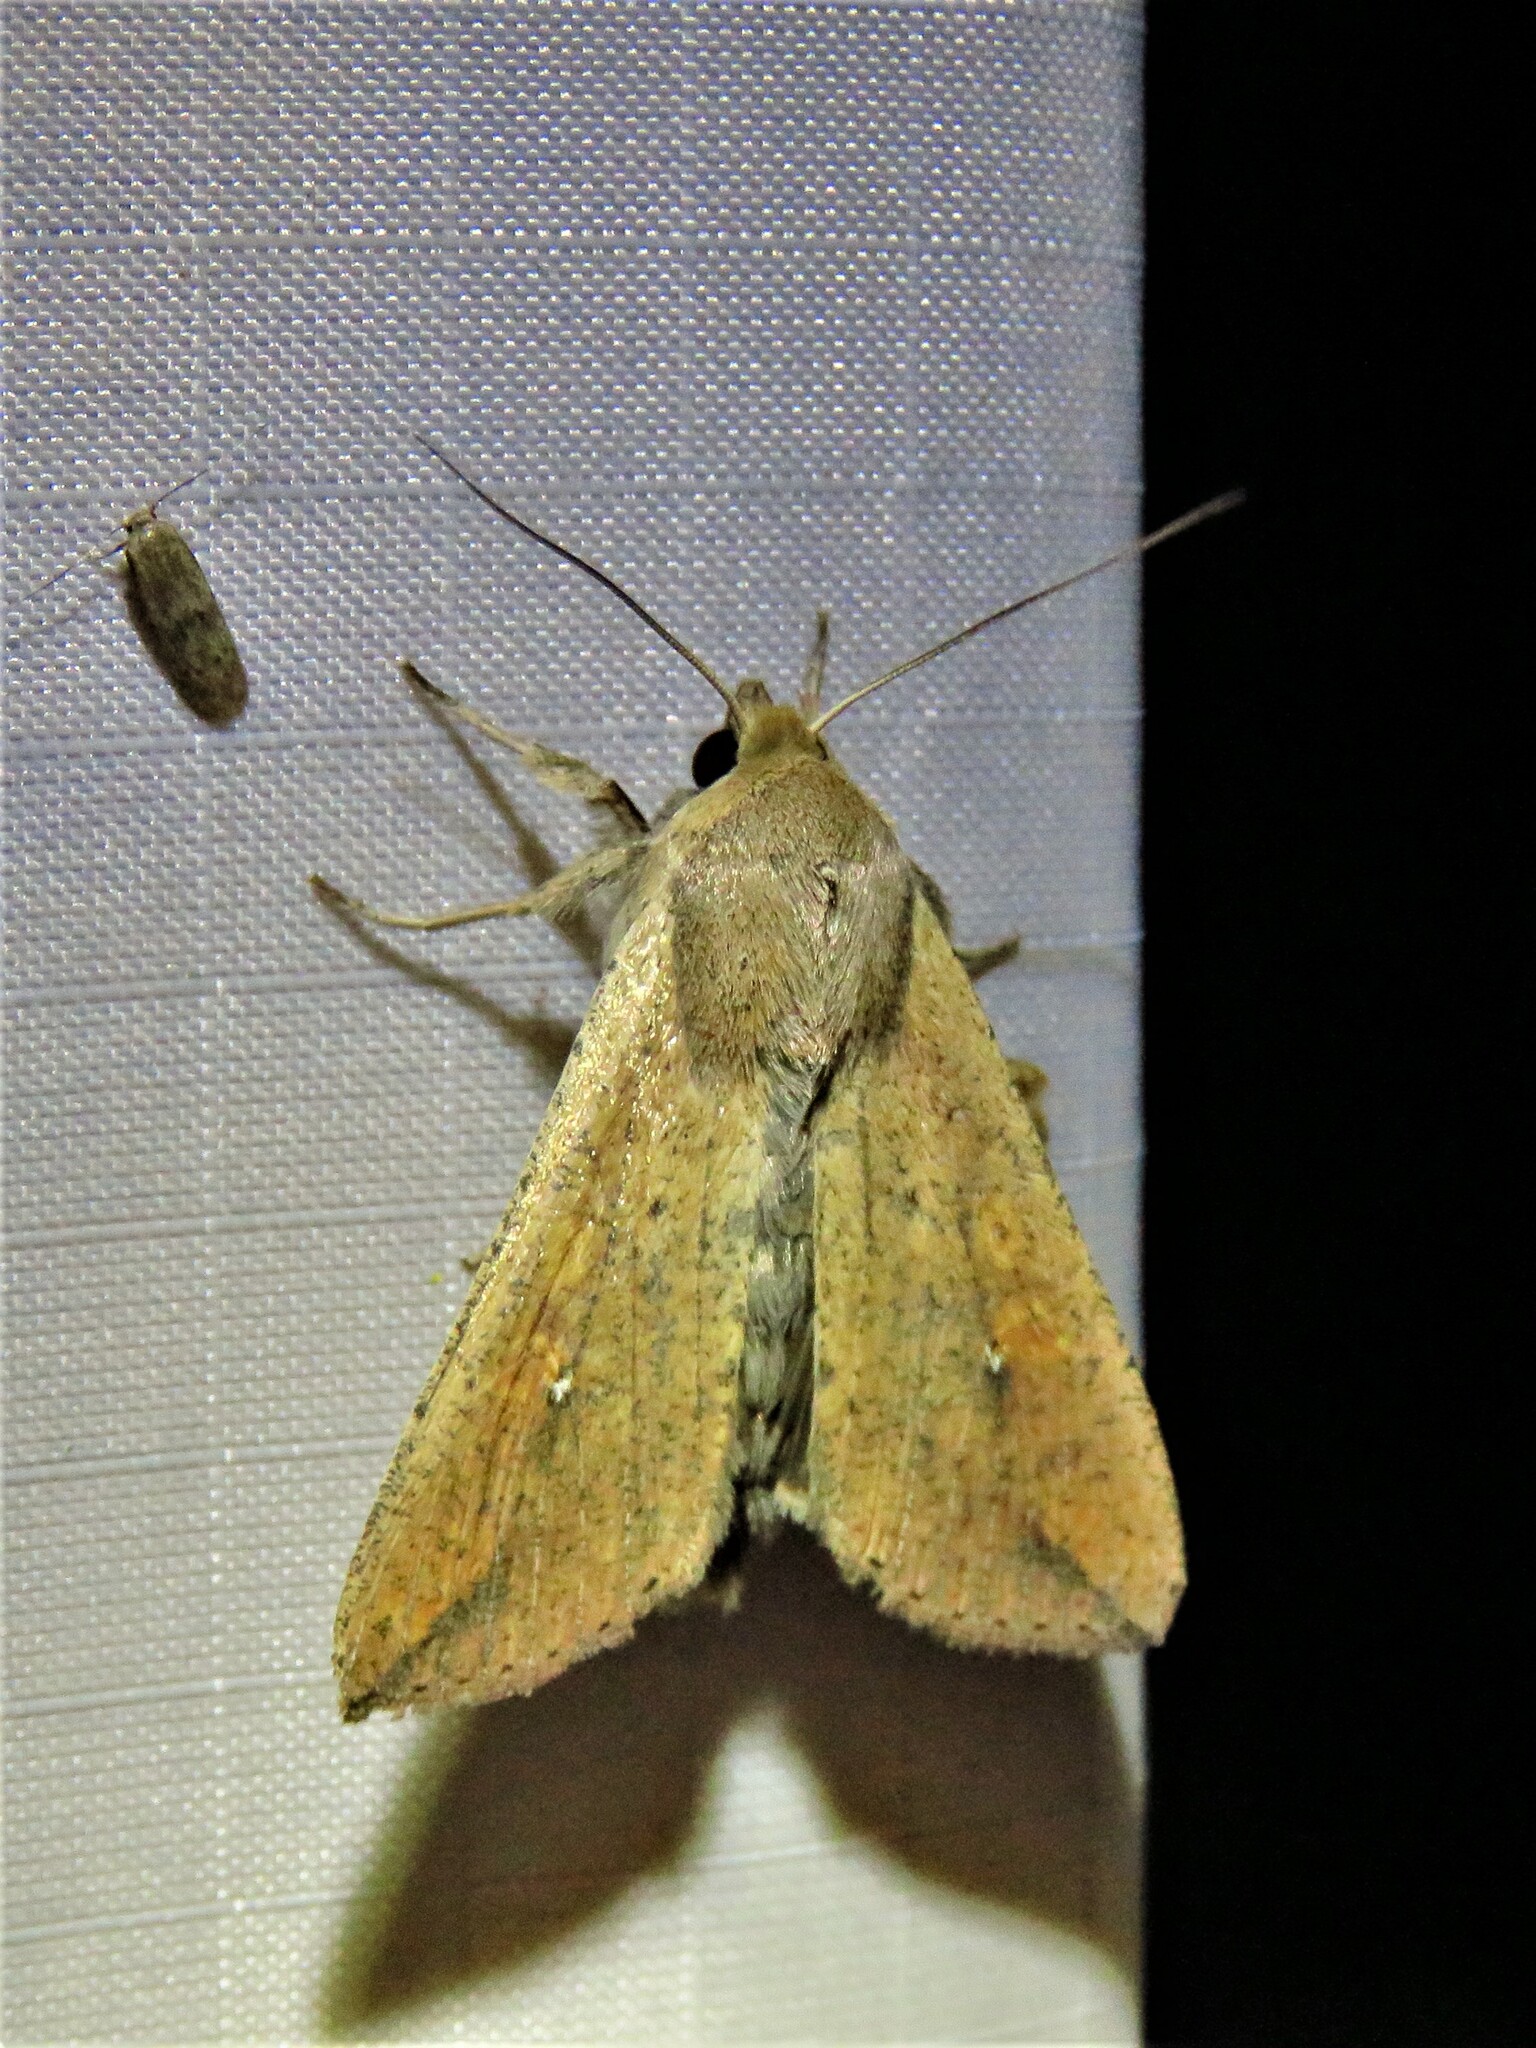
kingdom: Animalia
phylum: Arthropoda
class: Insecta
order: Lepidoptera
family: Noctuidae
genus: Mythimna
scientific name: Mythimna unipuncta
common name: White-speck
